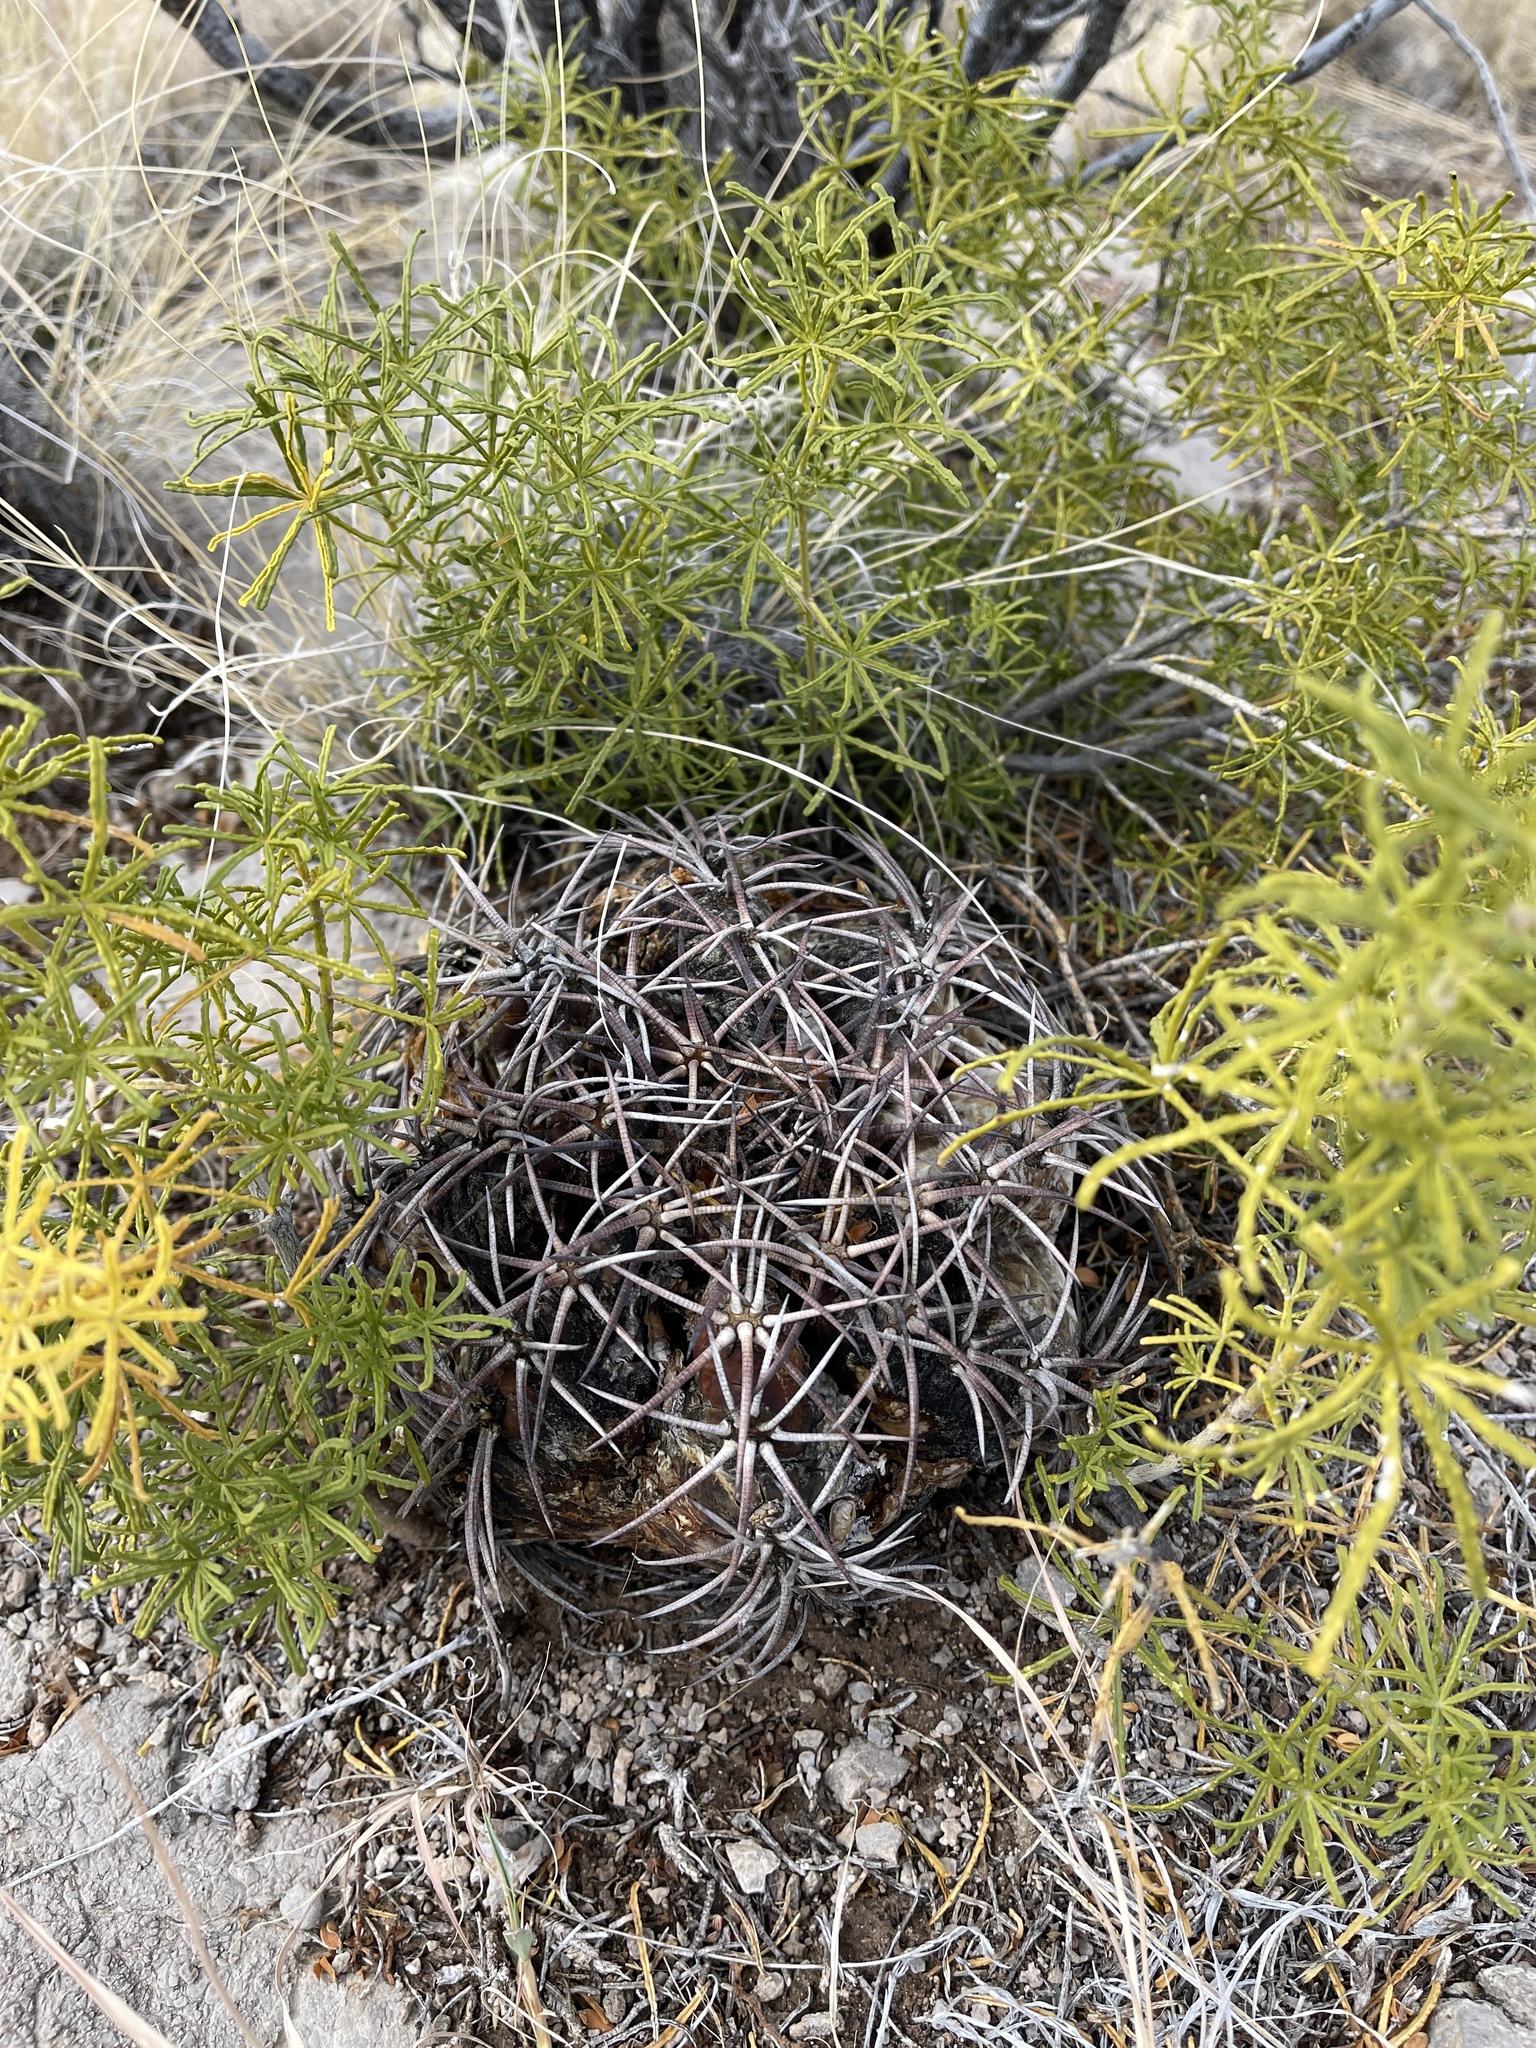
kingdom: Plantae
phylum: Tracheophyta
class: Magnoliopsida
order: Caryophyllales
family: Cactaceae
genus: Echinocactus
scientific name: Echinocactus horizonthalonius
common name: Devilshead
